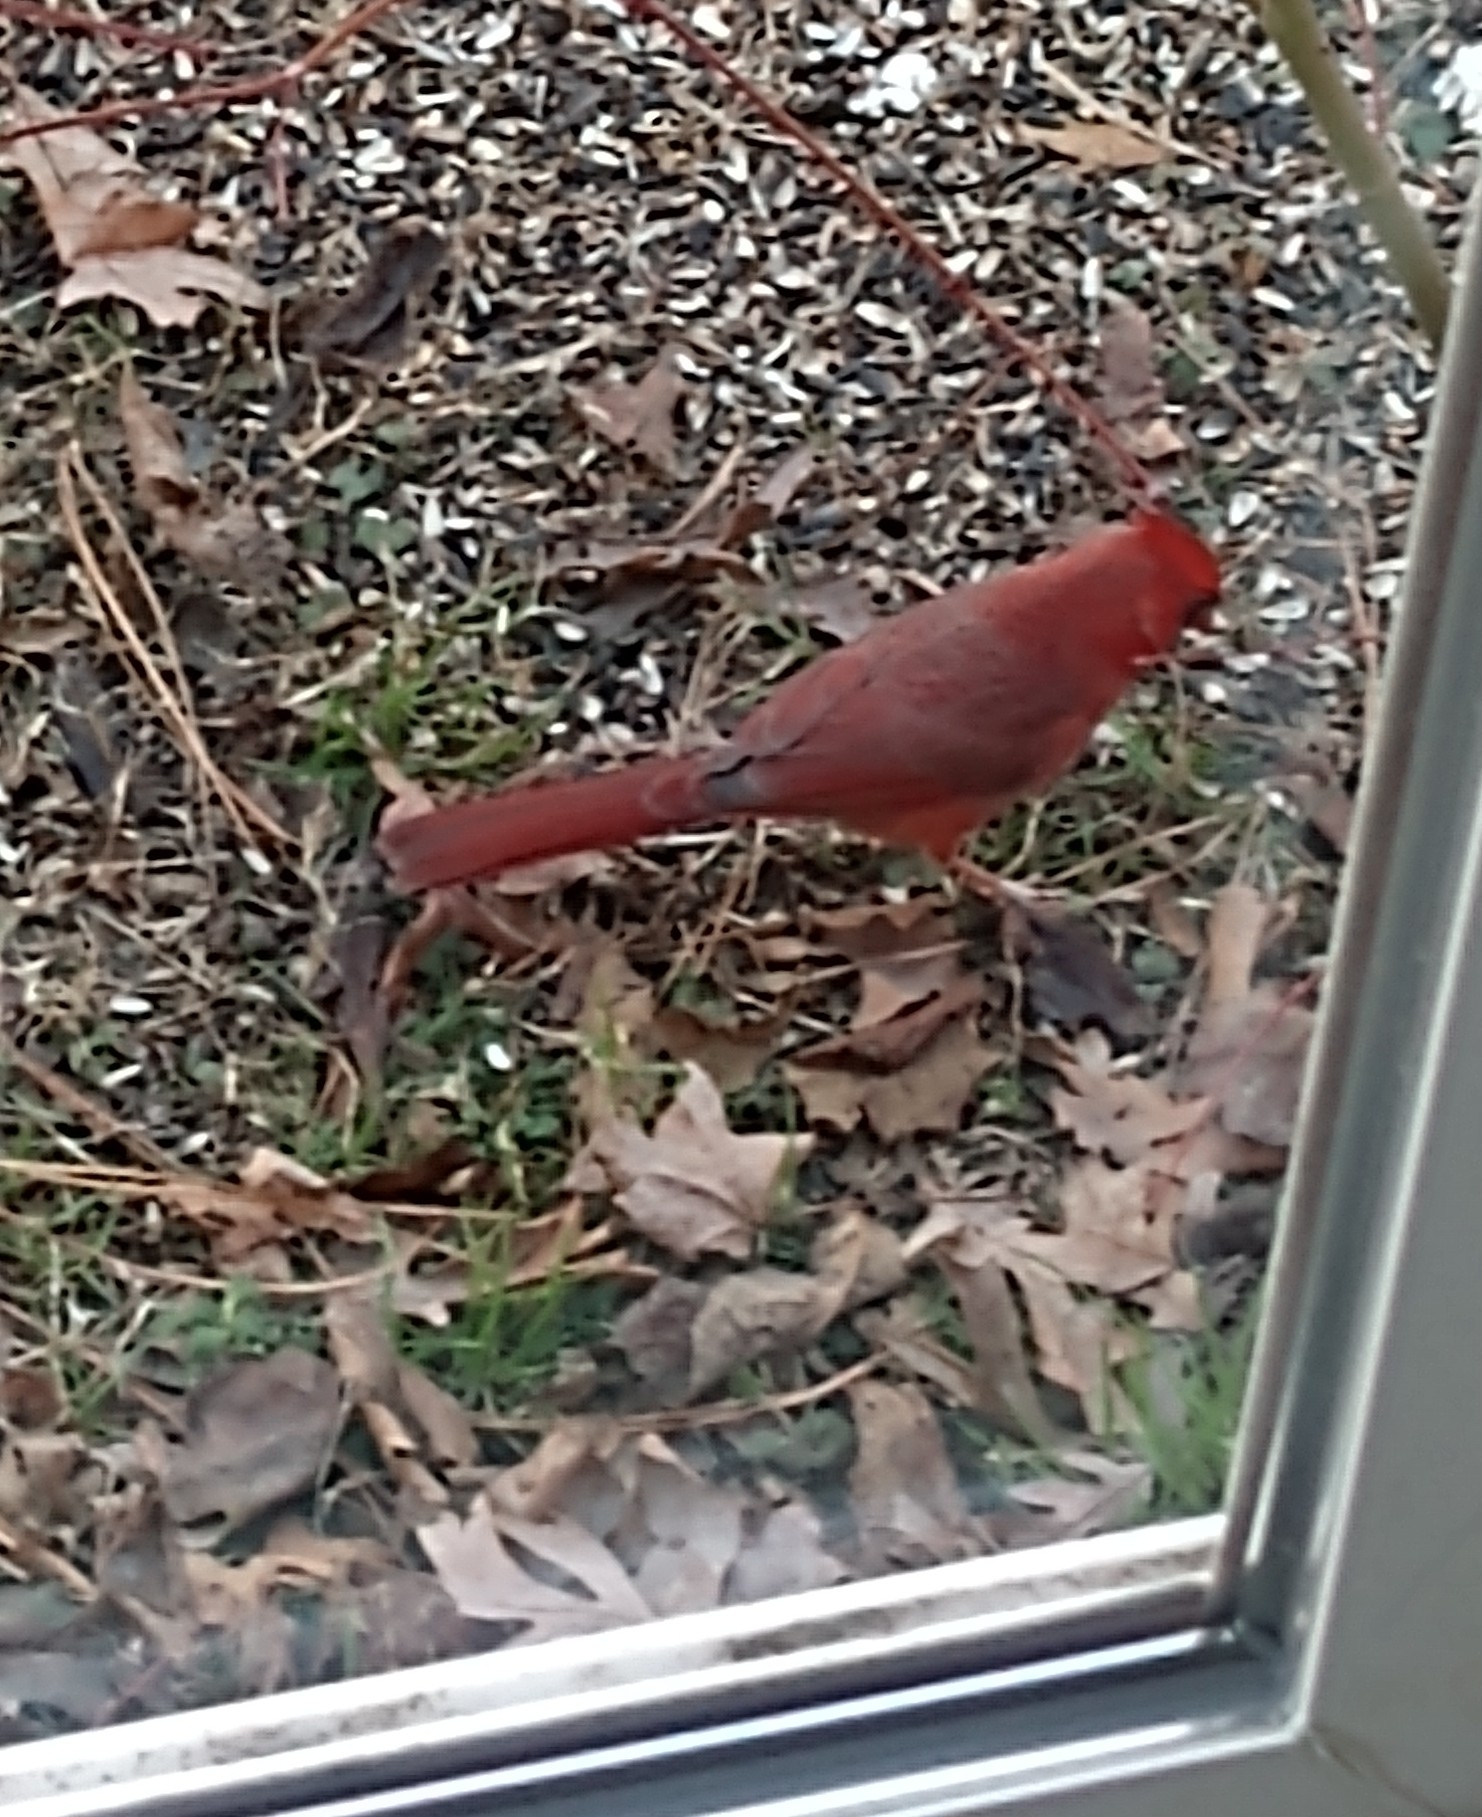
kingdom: Animalia
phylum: Chordata
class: Aves
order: Passeriformes
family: Cardinalidae
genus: Cardinalis
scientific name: Cardinalis cardinalis
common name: Northern cardinal
